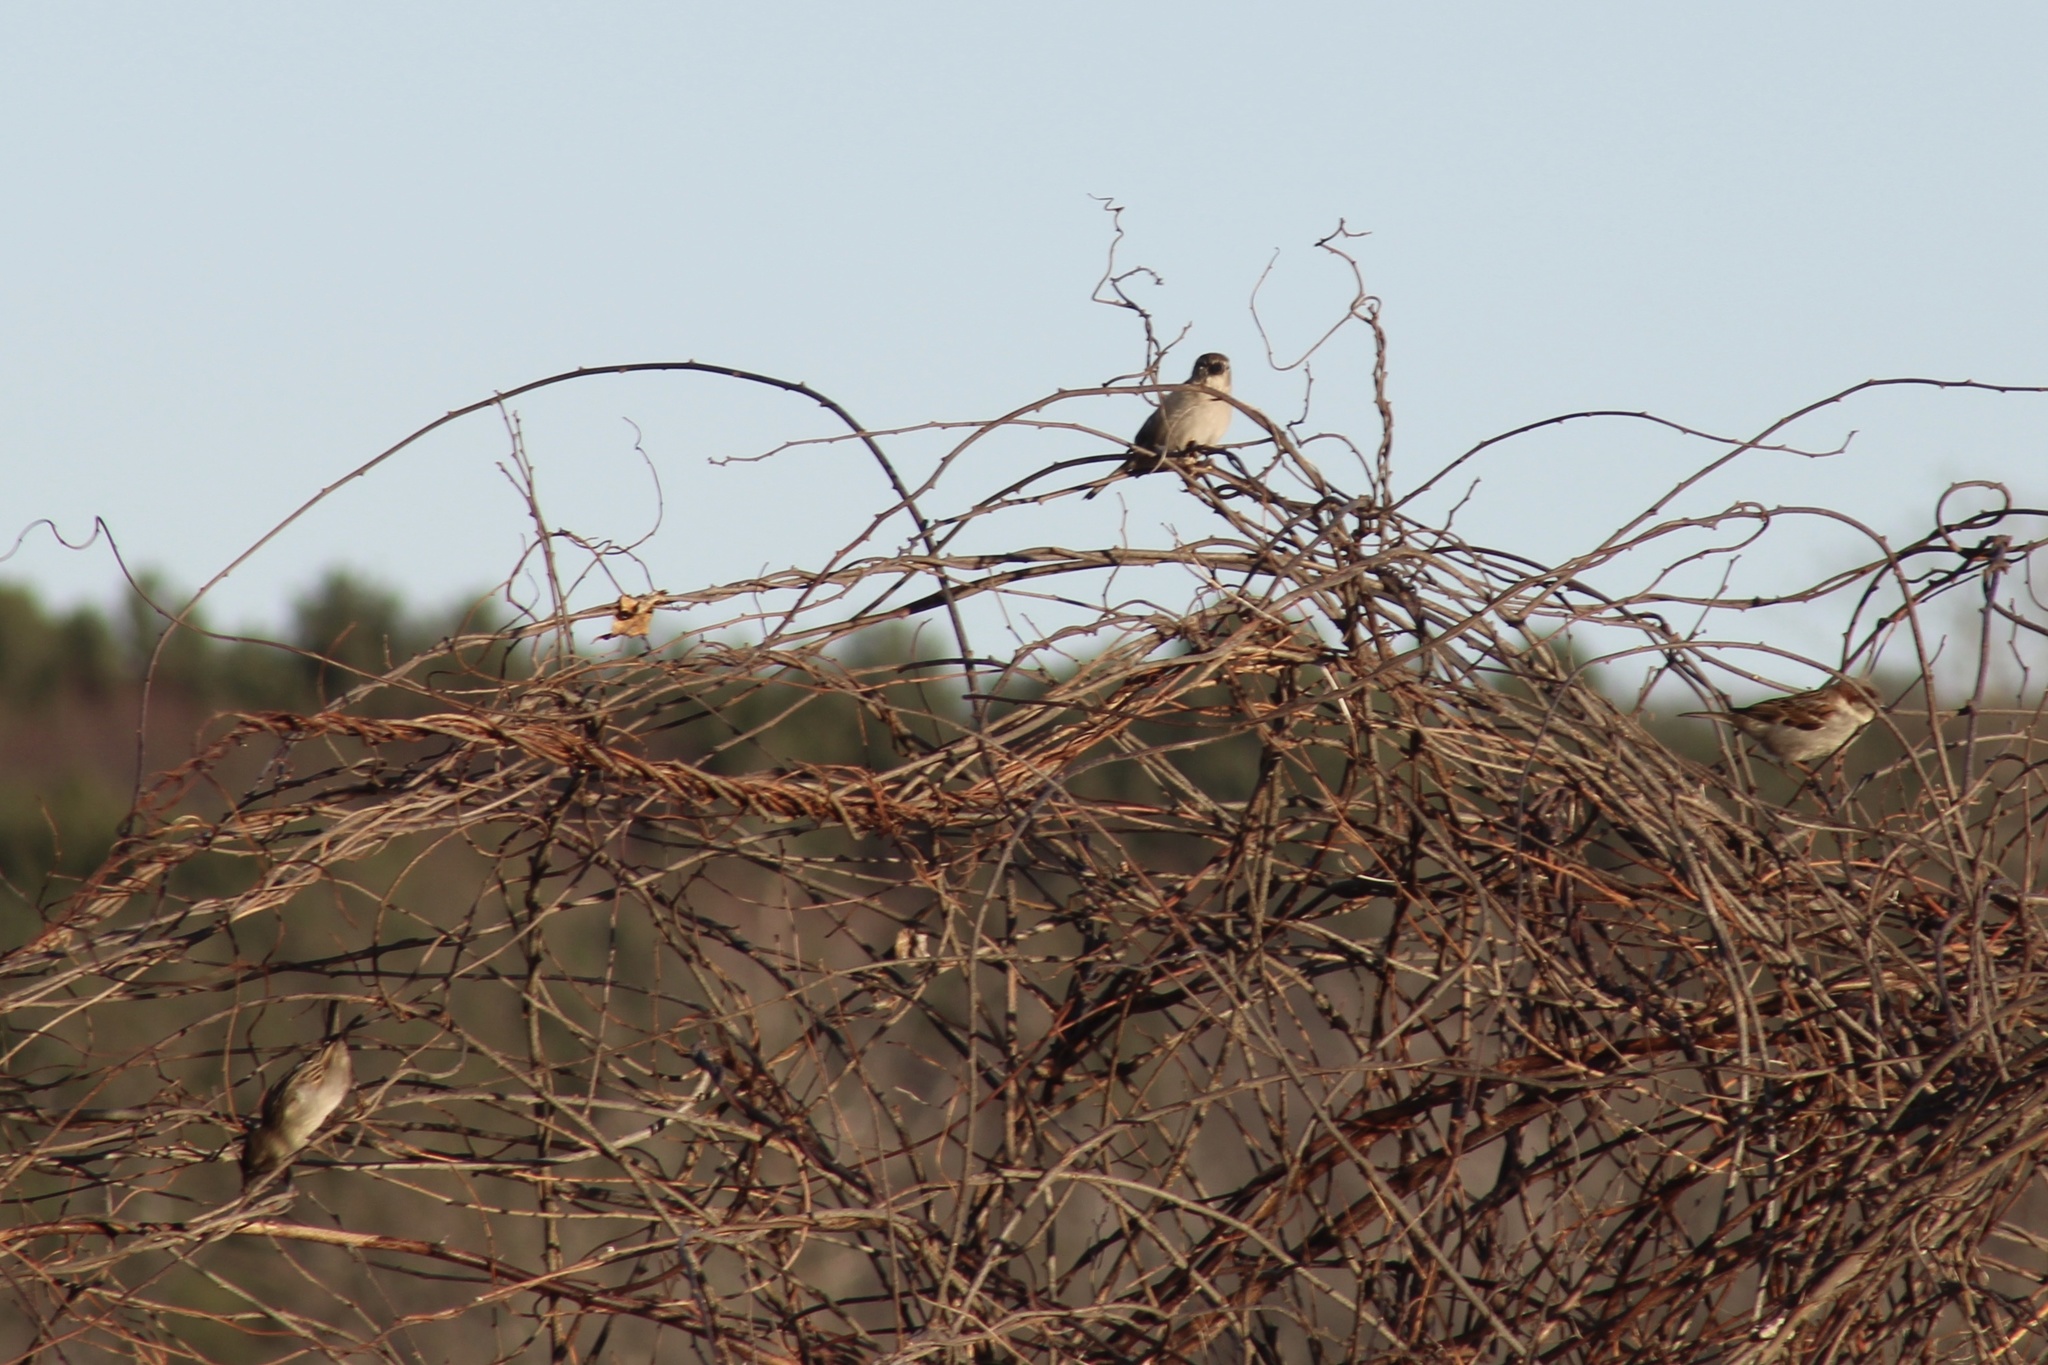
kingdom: Animalia
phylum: Chordata
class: Aves
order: Passeriformes
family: Passeridae
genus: Passer
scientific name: Passer domesticus
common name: House sparrow
